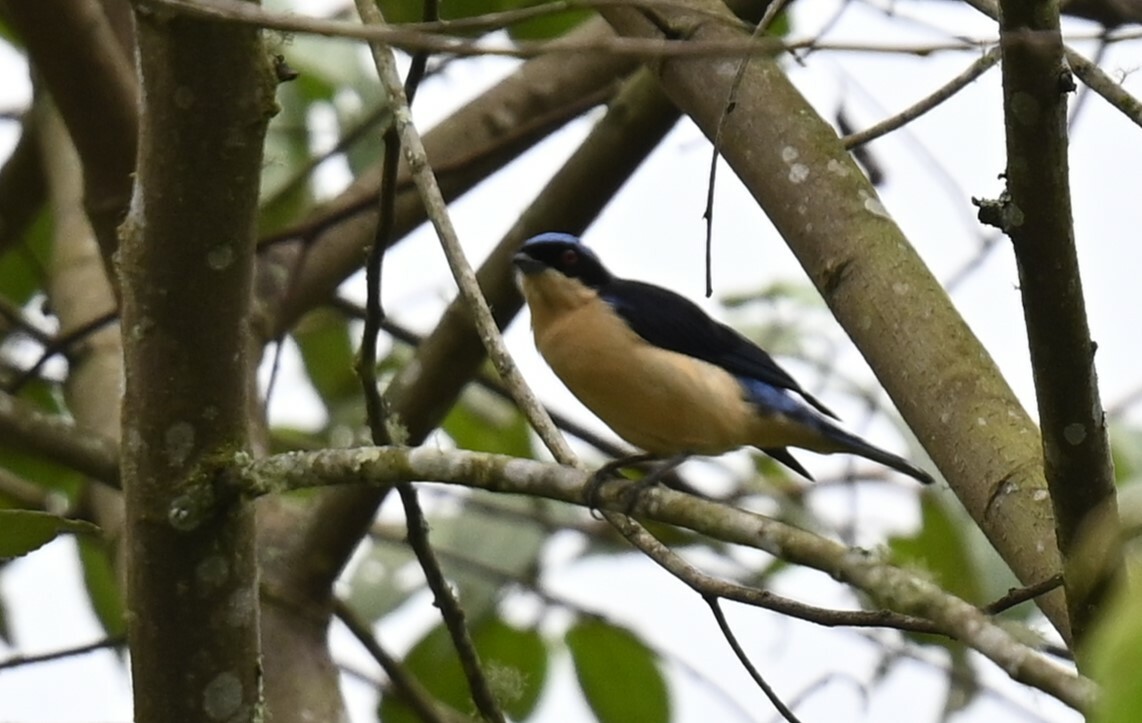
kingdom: Animalia
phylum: Chordata
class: Aves
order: Passeriformes
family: Thraupidae
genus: Pipraeidea
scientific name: Pipraeidea melanonota
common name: Fawn-breasted tanager
